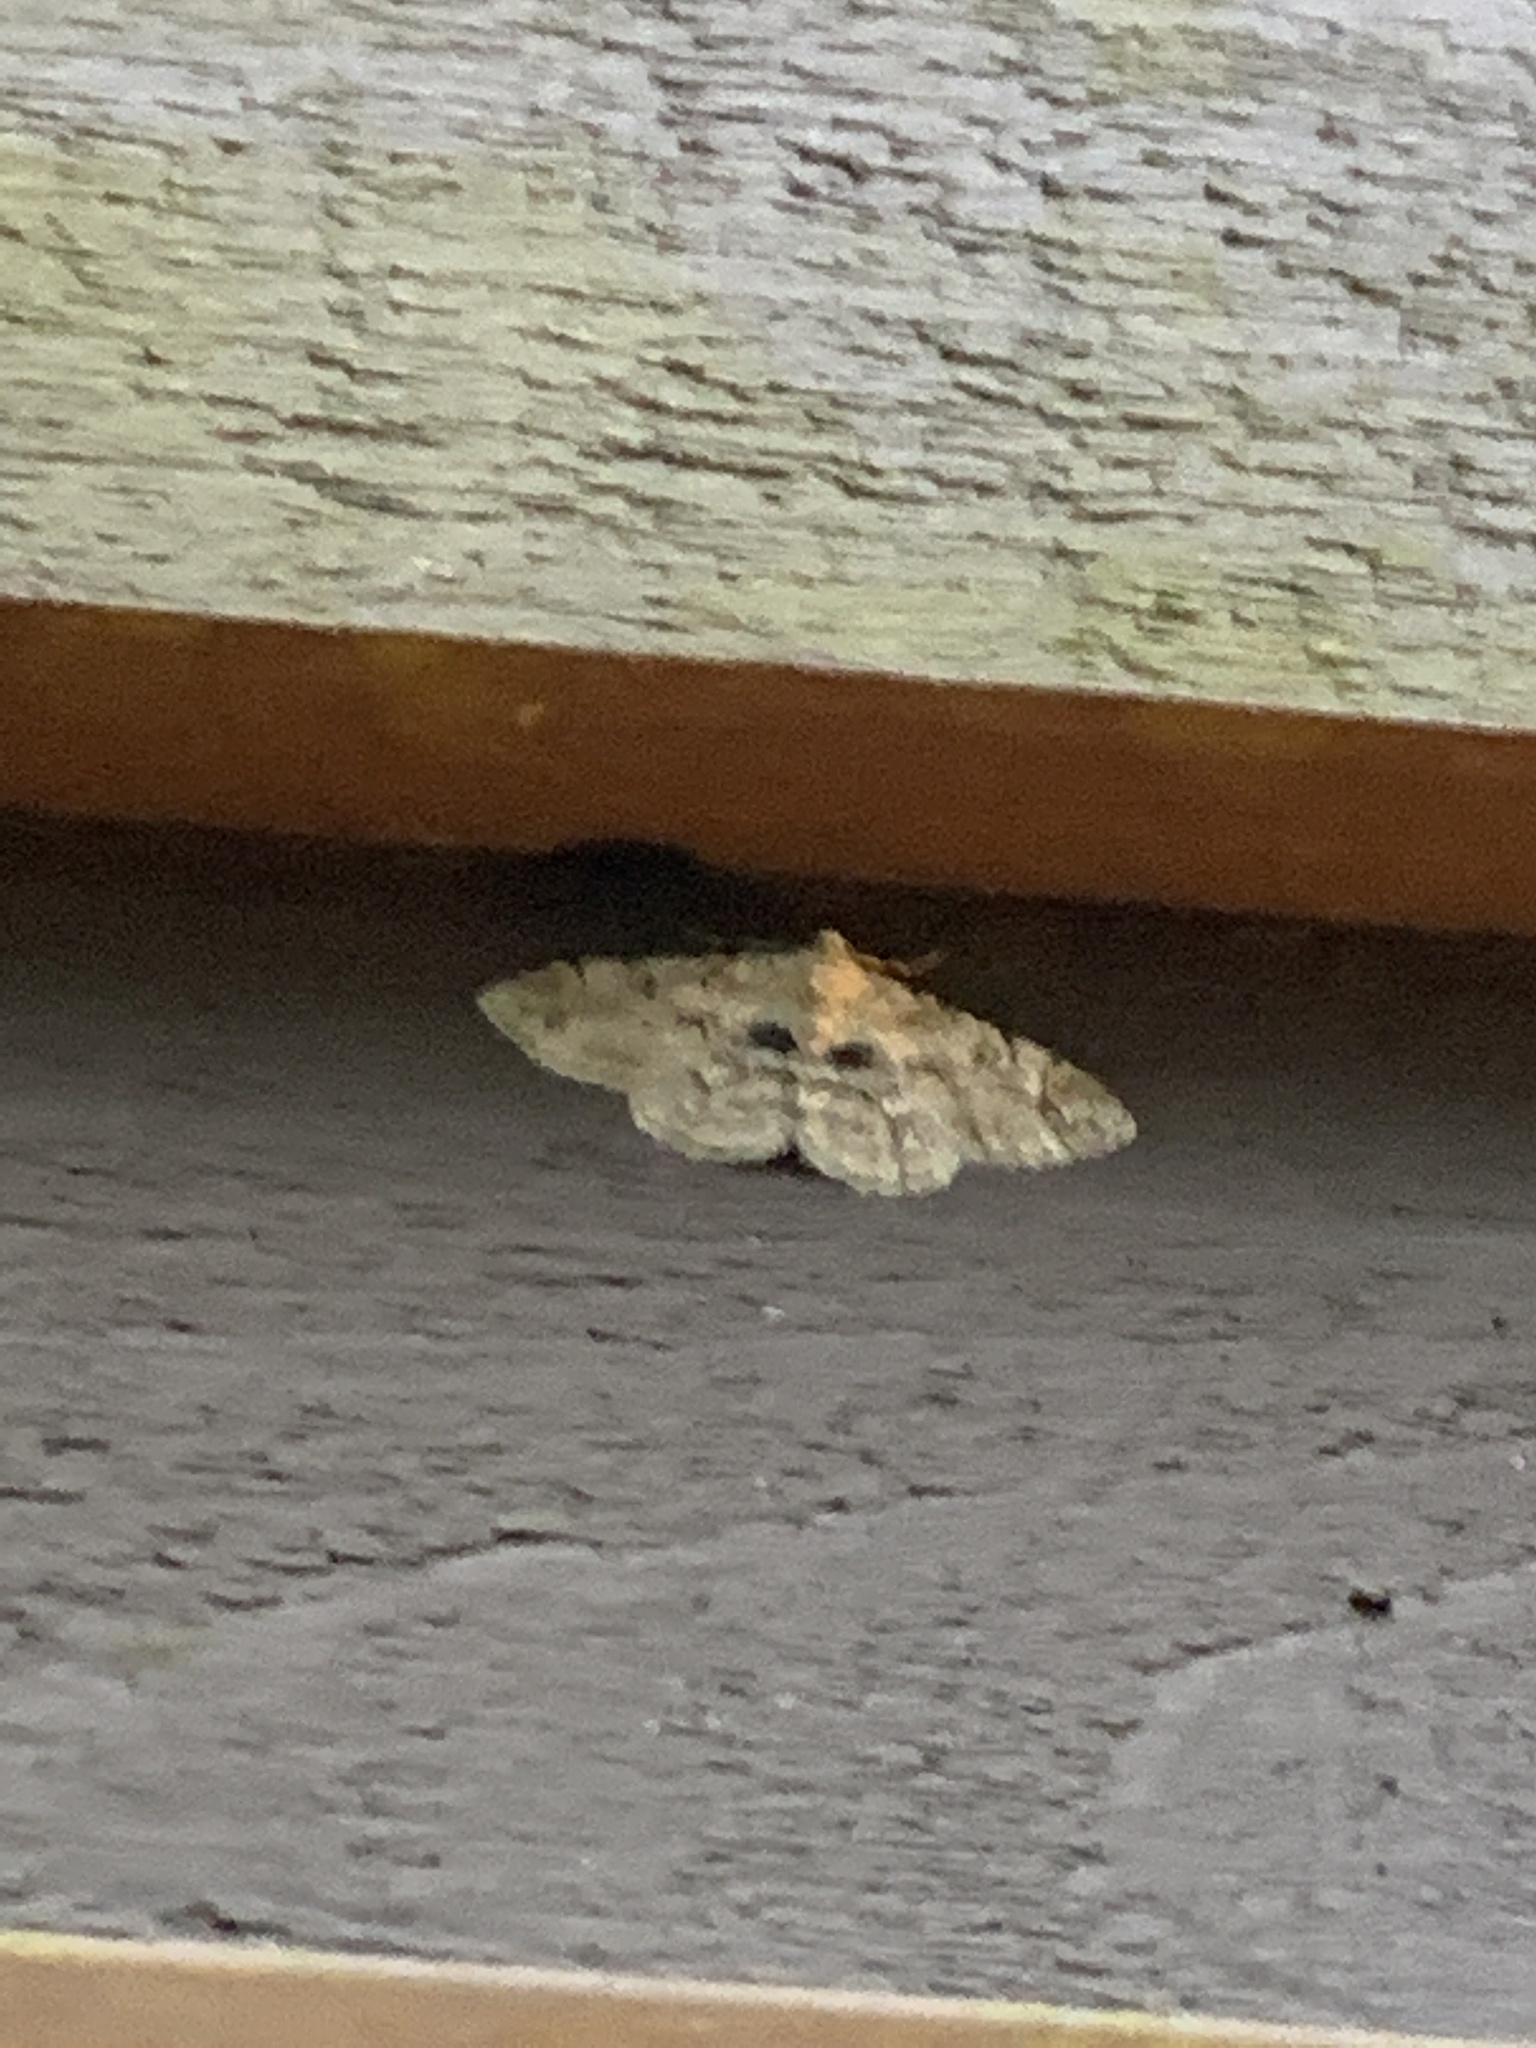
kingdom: Animalia
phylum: Arthropoda
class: Insecta
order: Lepidoptera
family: Geometridae
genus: Iridopsis
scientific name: Iridopsis larvaria
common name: Bent-line gray
